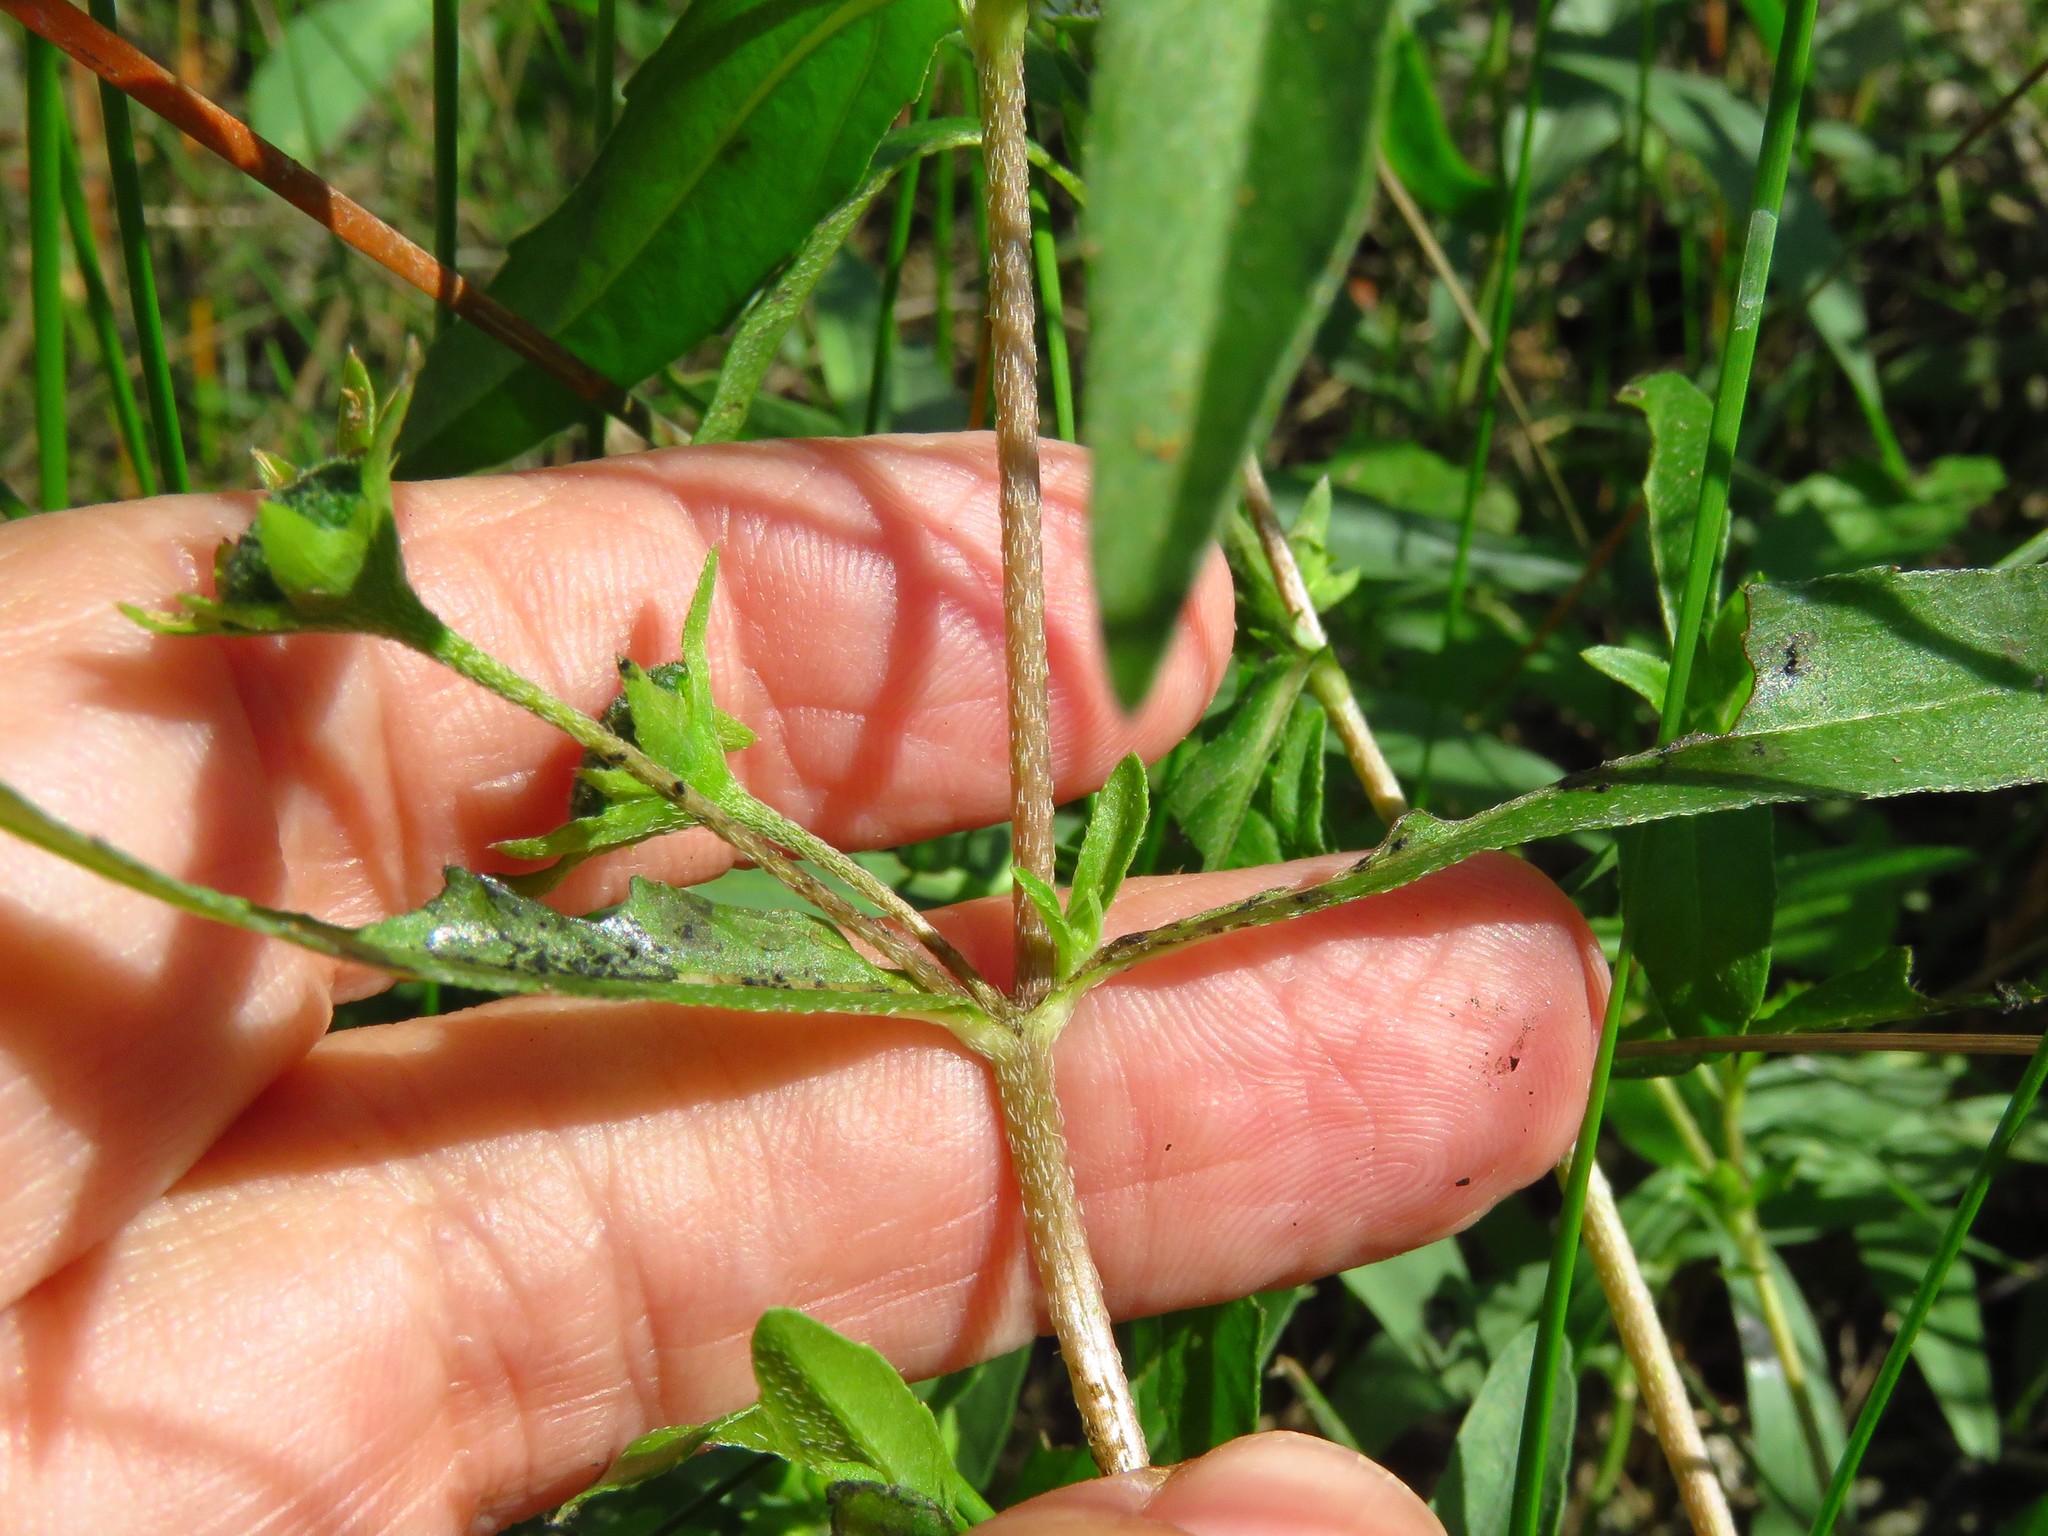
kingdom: Plantae
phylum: Tracheophyta
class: Magnoliopsida
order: Asterales
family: Asteraceae
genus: Eclipta
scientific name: Eclipta prostrata
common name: False daisy
